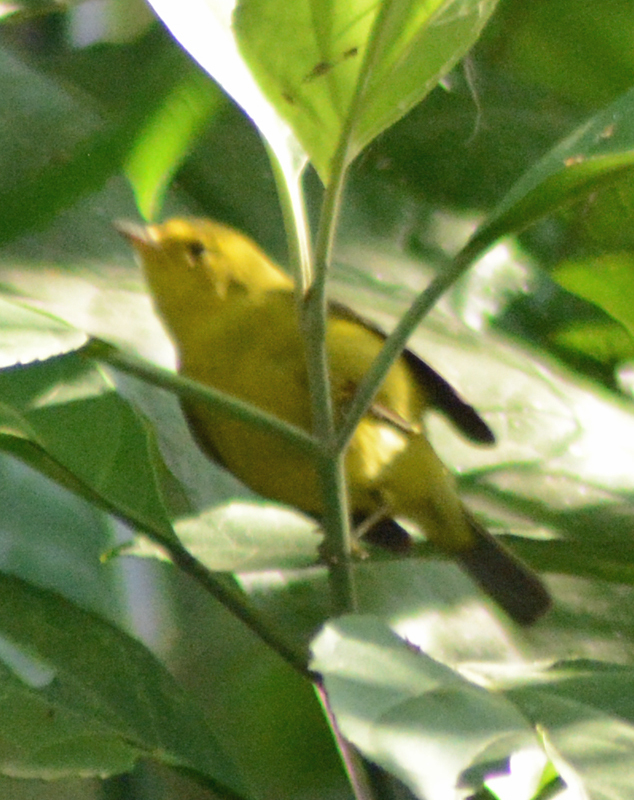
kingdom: Animalia
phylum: Chordata
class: Aves
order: Passeriformes
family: Parulidae
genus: Cardellina
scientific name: Cardellina pusilla
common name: Wilson's warbler
